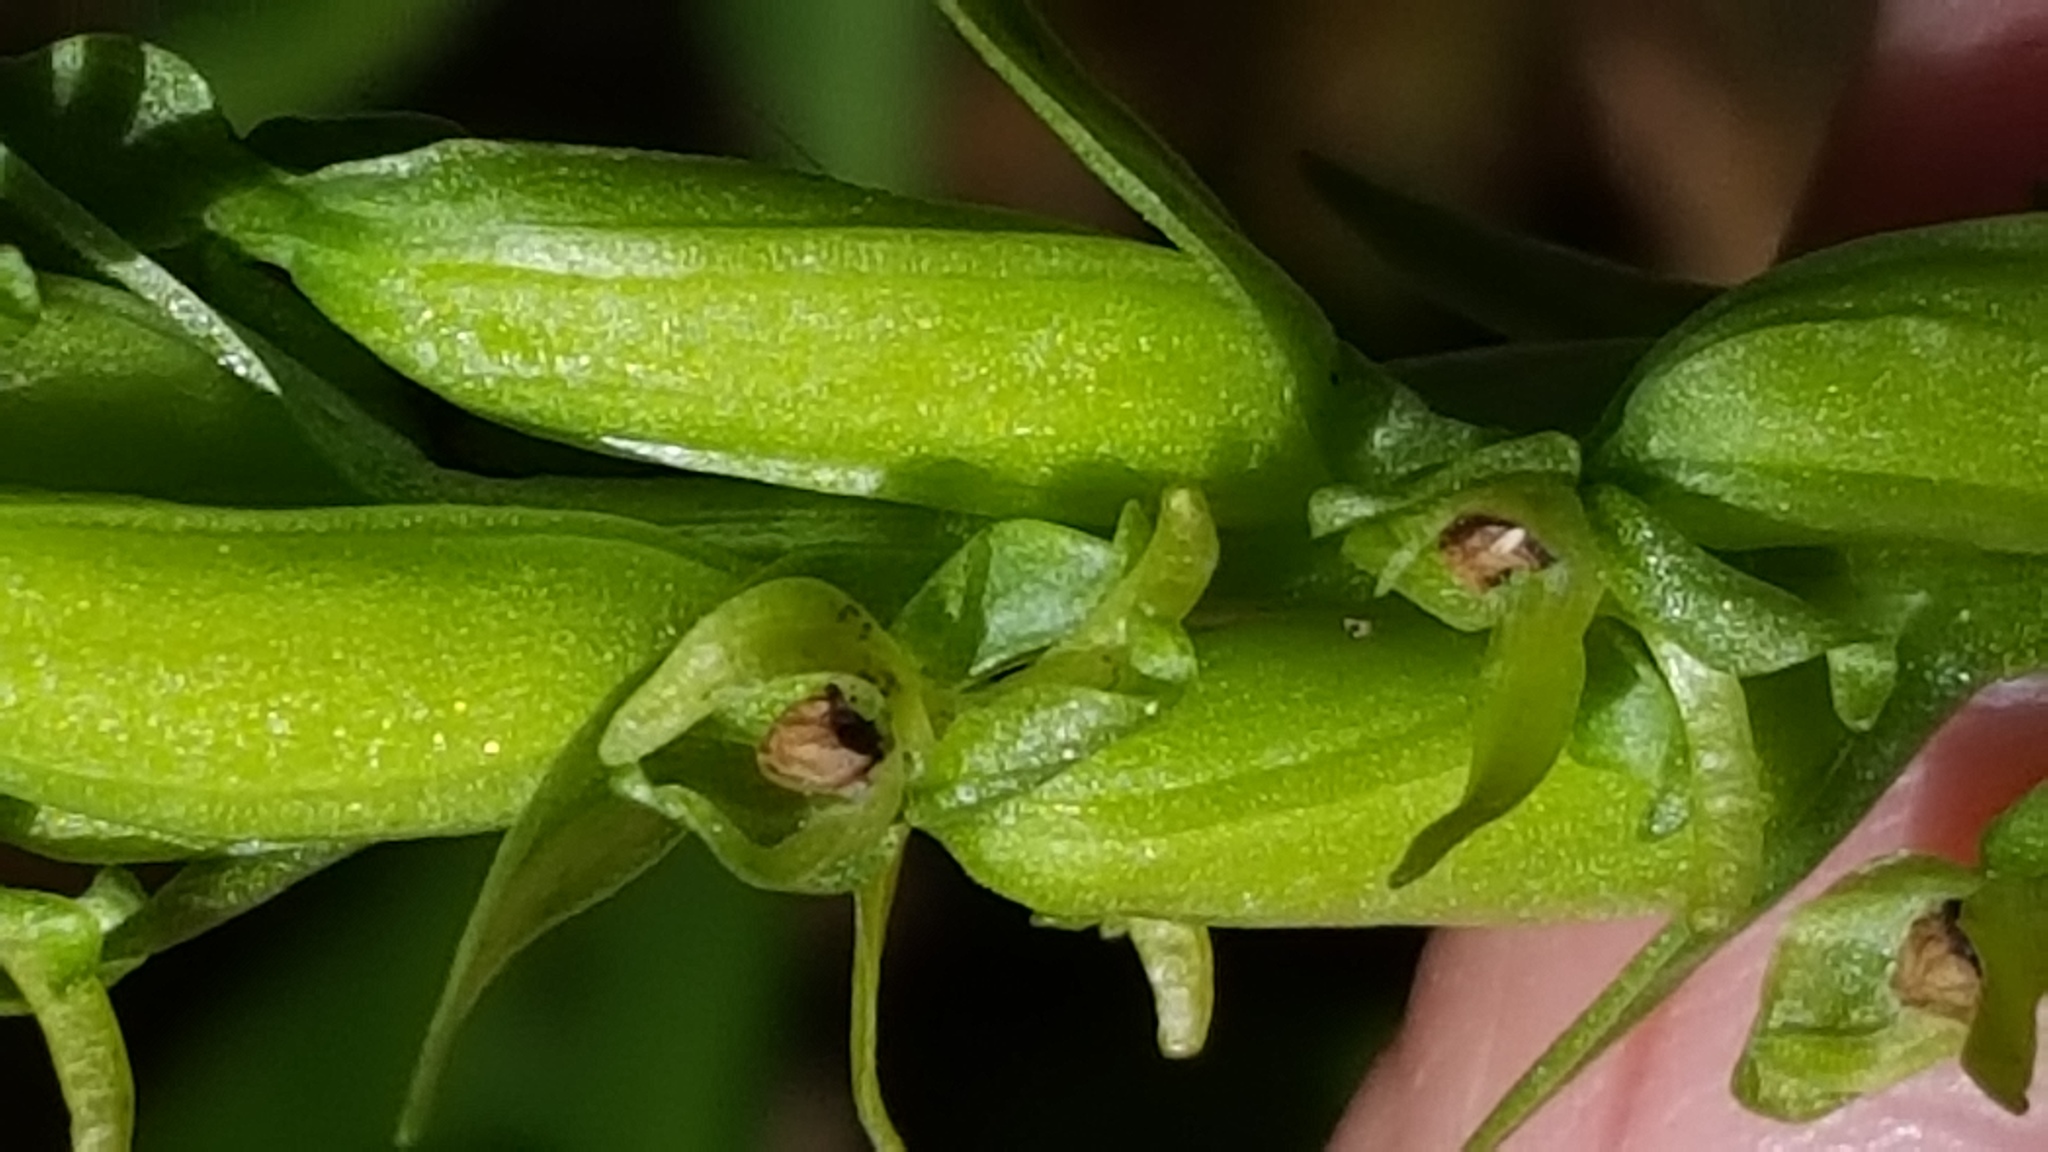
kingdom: Plantae
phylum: Tracheophyta
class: Liliopsida
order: Asparagales
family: Orchidaceae
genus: Platanthera
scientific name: Platanthera huronensis
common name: Fragrant green orchid
